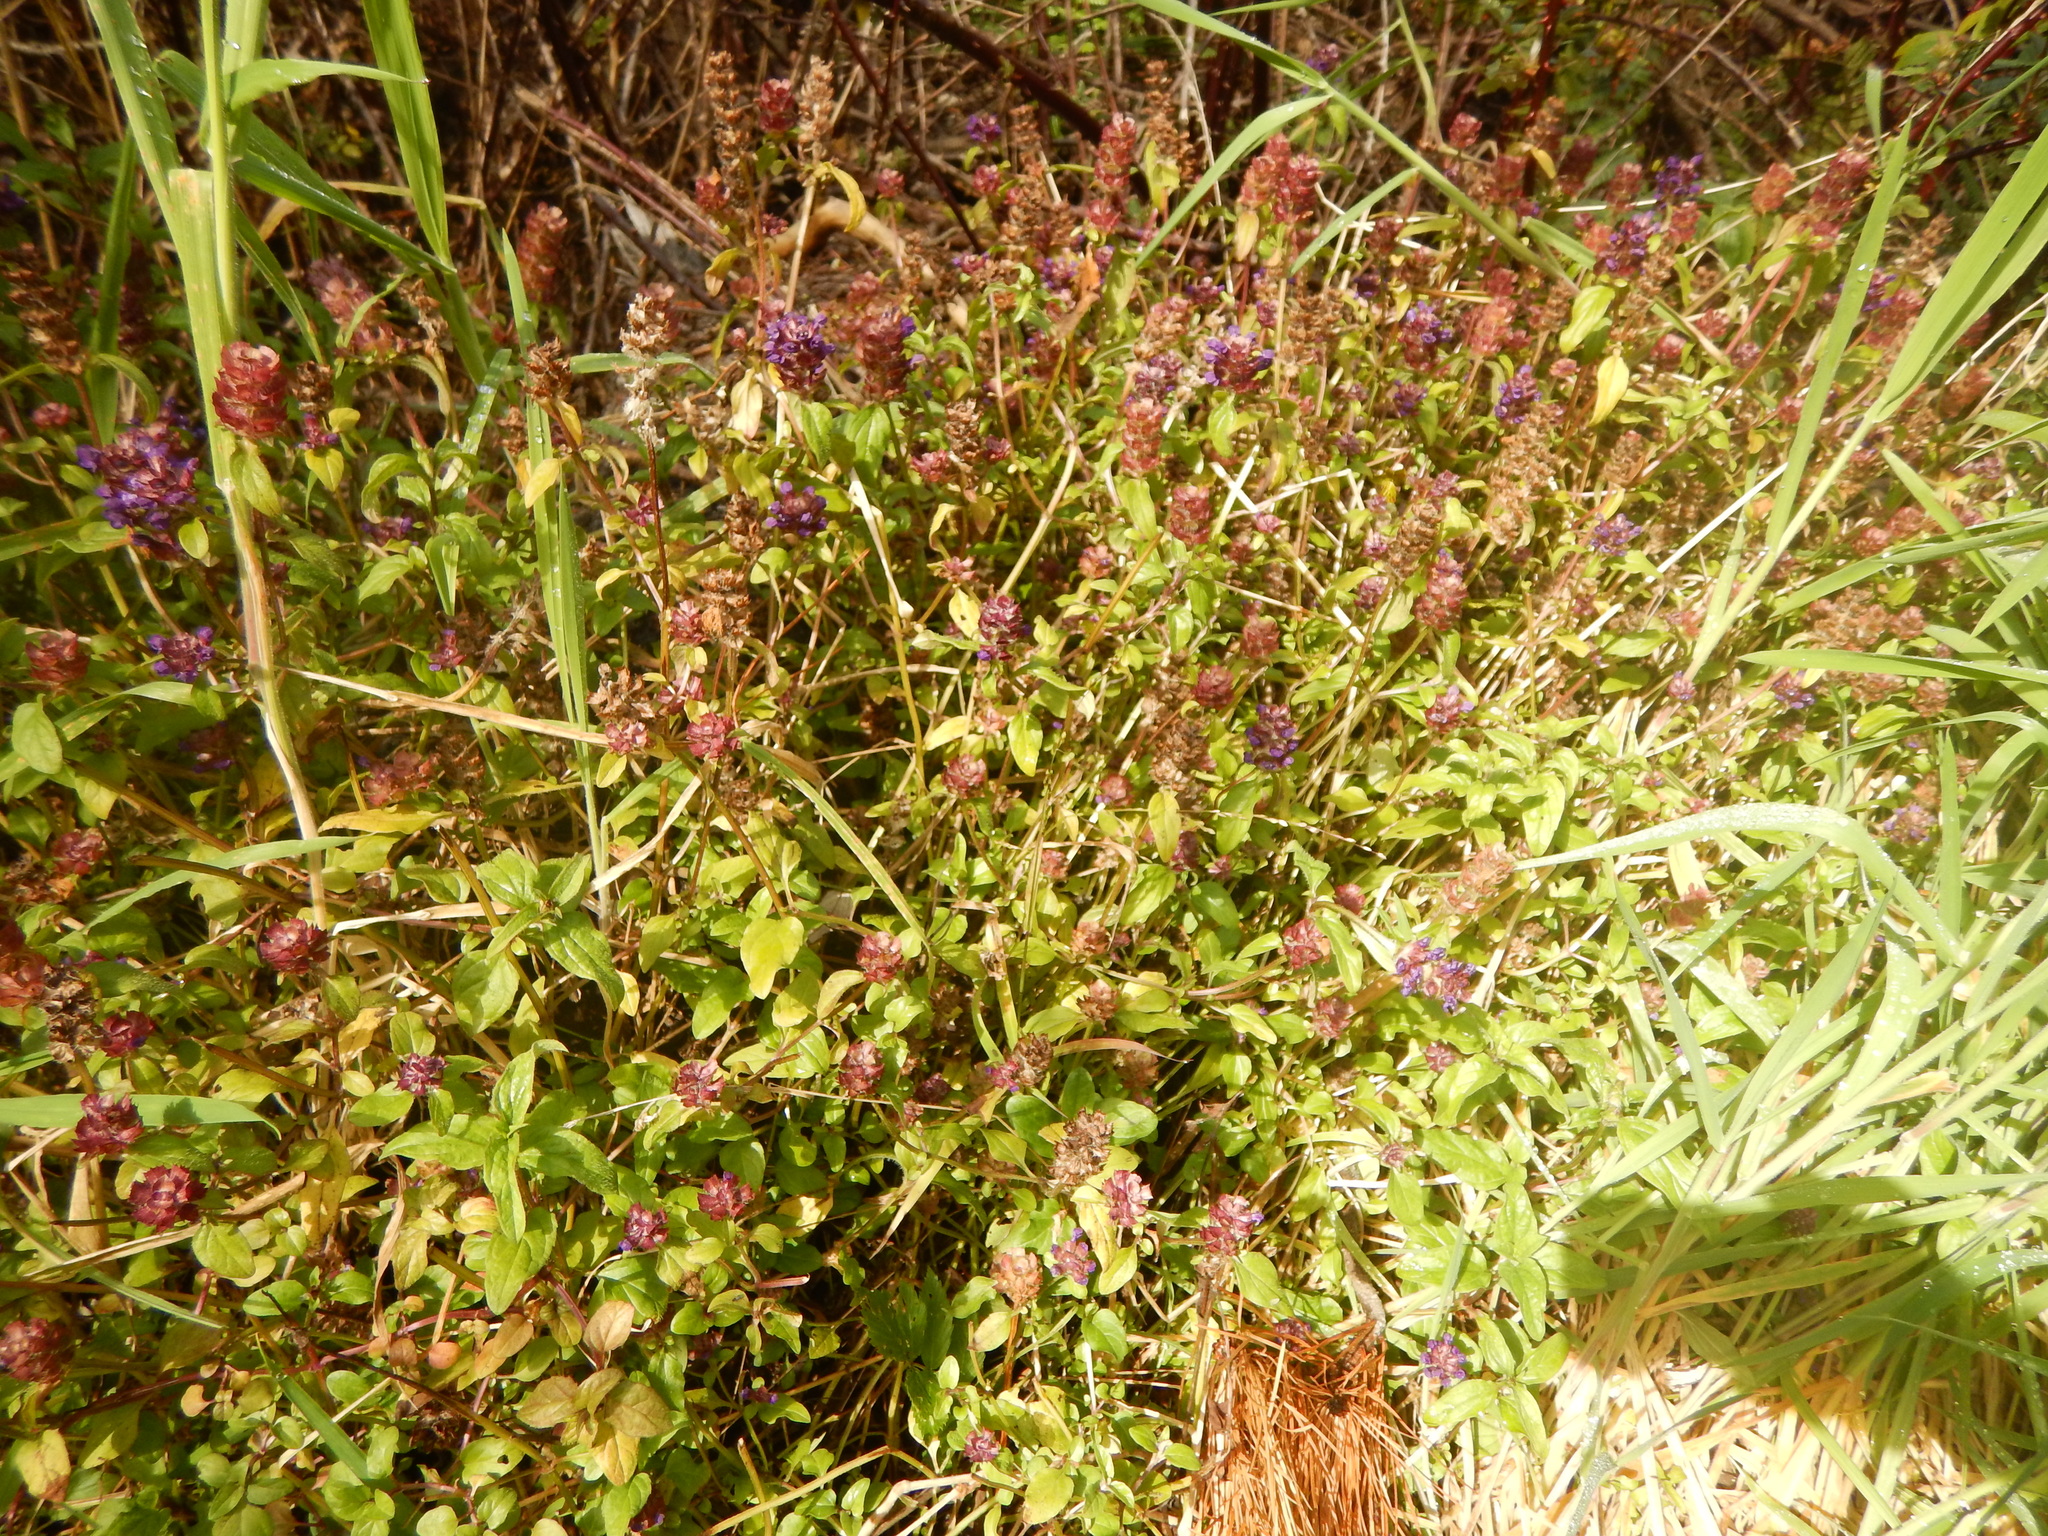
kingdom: Plantae
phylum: Tracheophyta
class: Magnoliopsida
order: Lamiales
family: Lamiaceae
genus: Prunella
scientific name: Prunella vulgaris
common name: Heal-all
